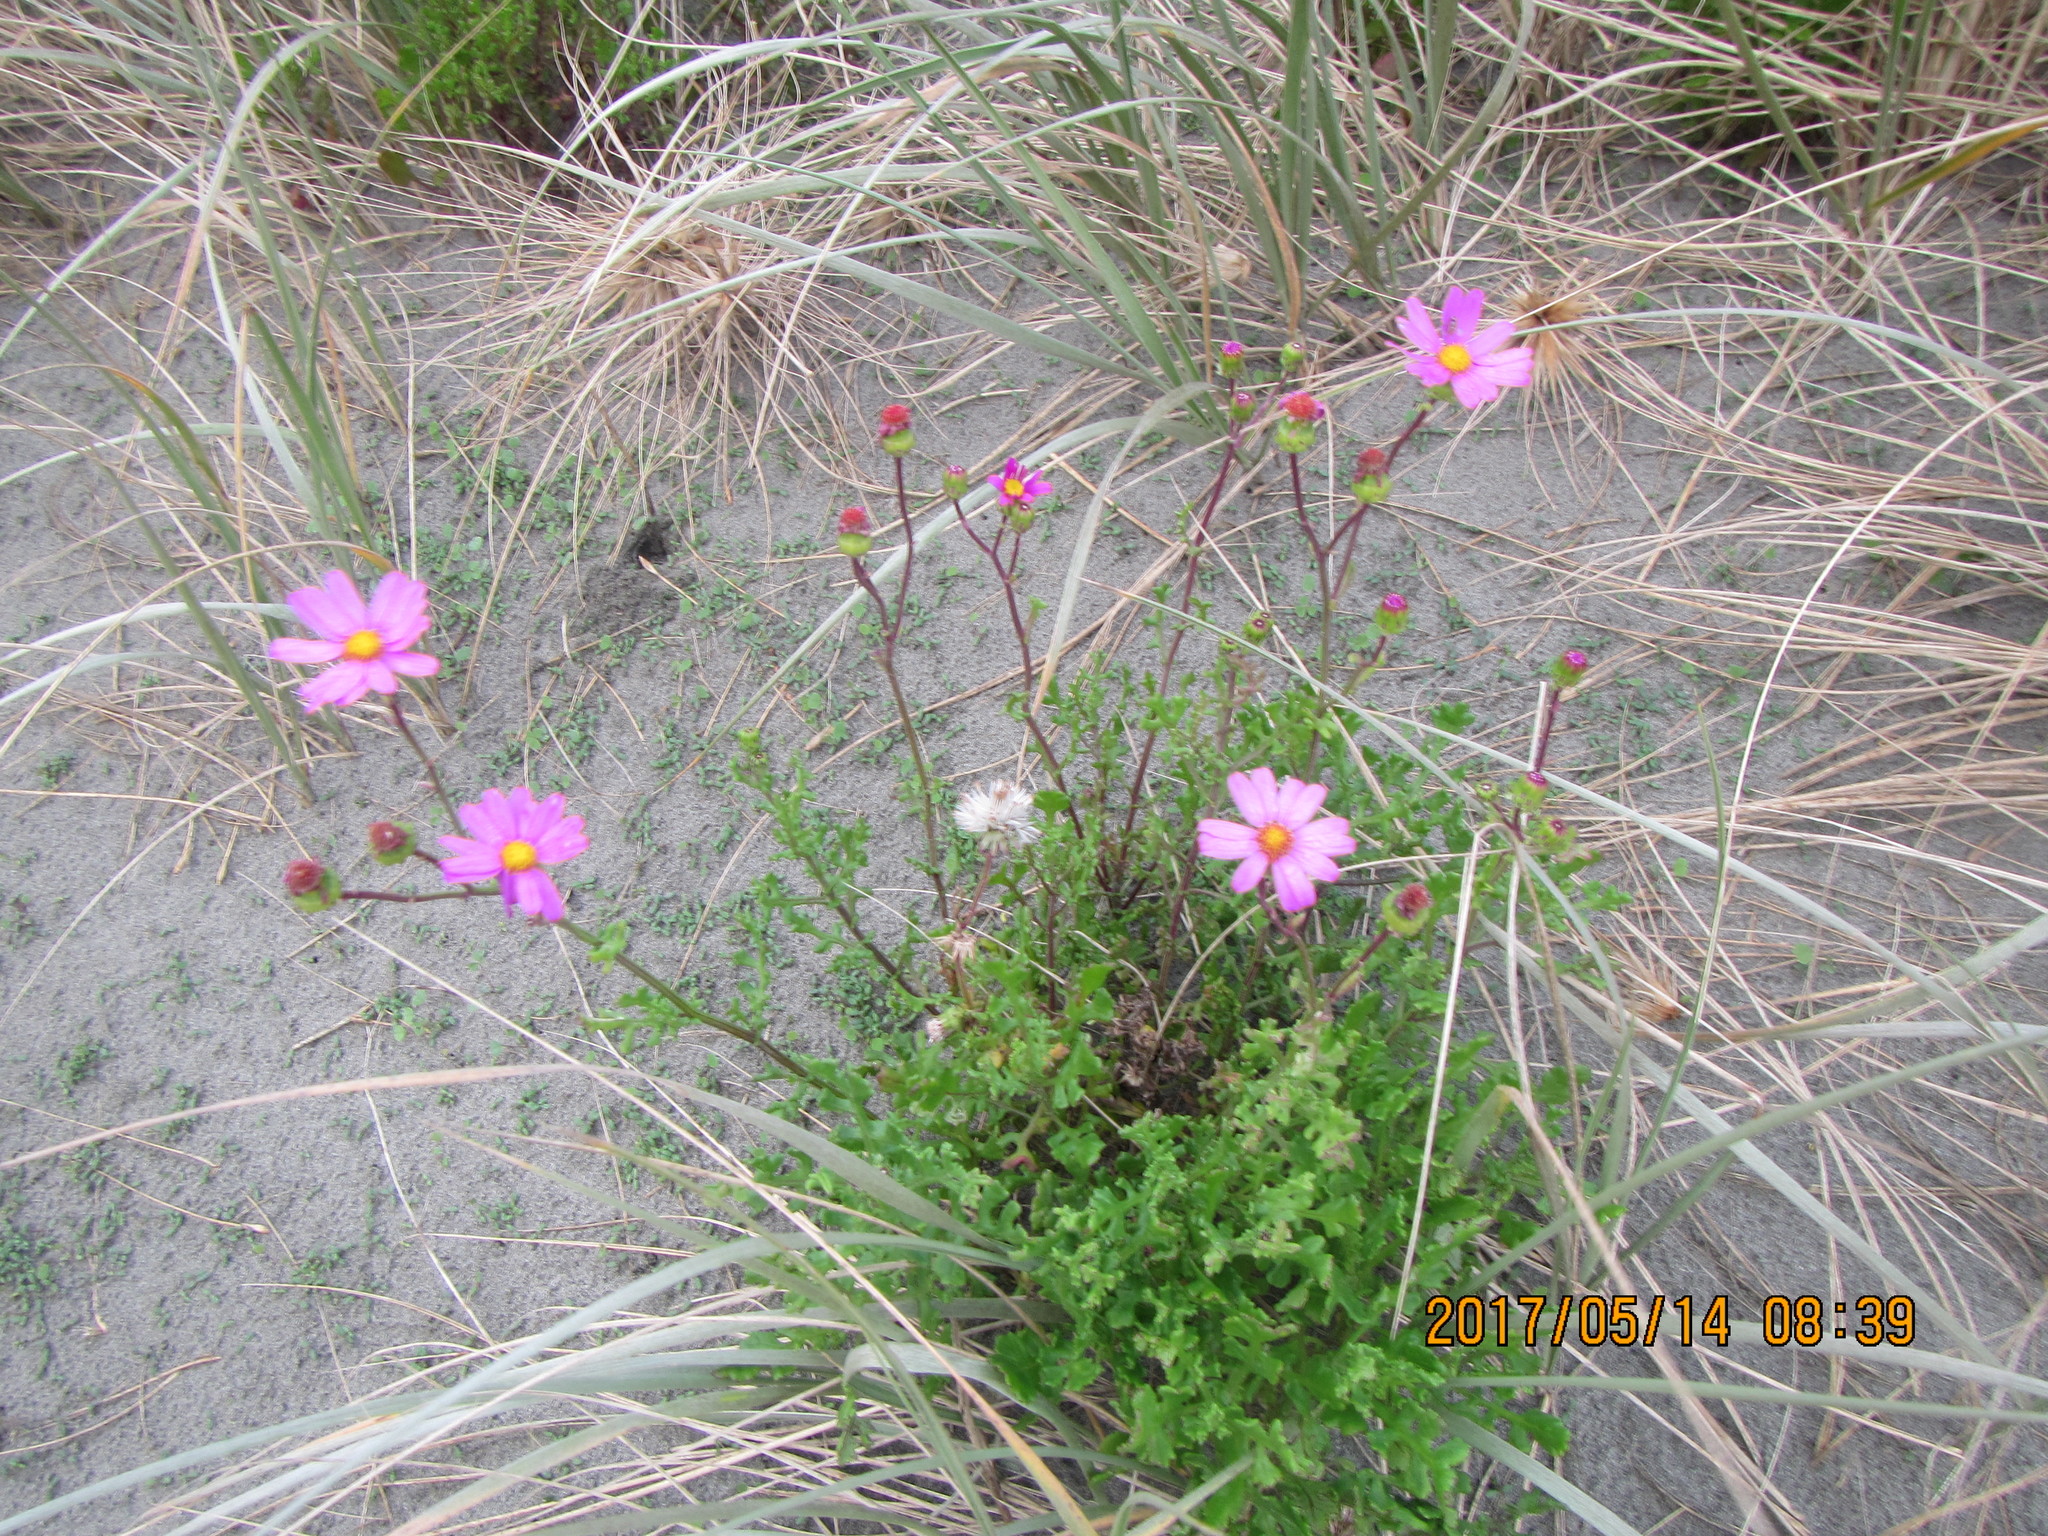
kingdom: Plantae
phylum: Tracheophyta
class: Magnoliopsida
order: Asterales
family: Asteraceae
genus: Senecio
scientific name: Senecio elegans
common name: Purple groundsel
